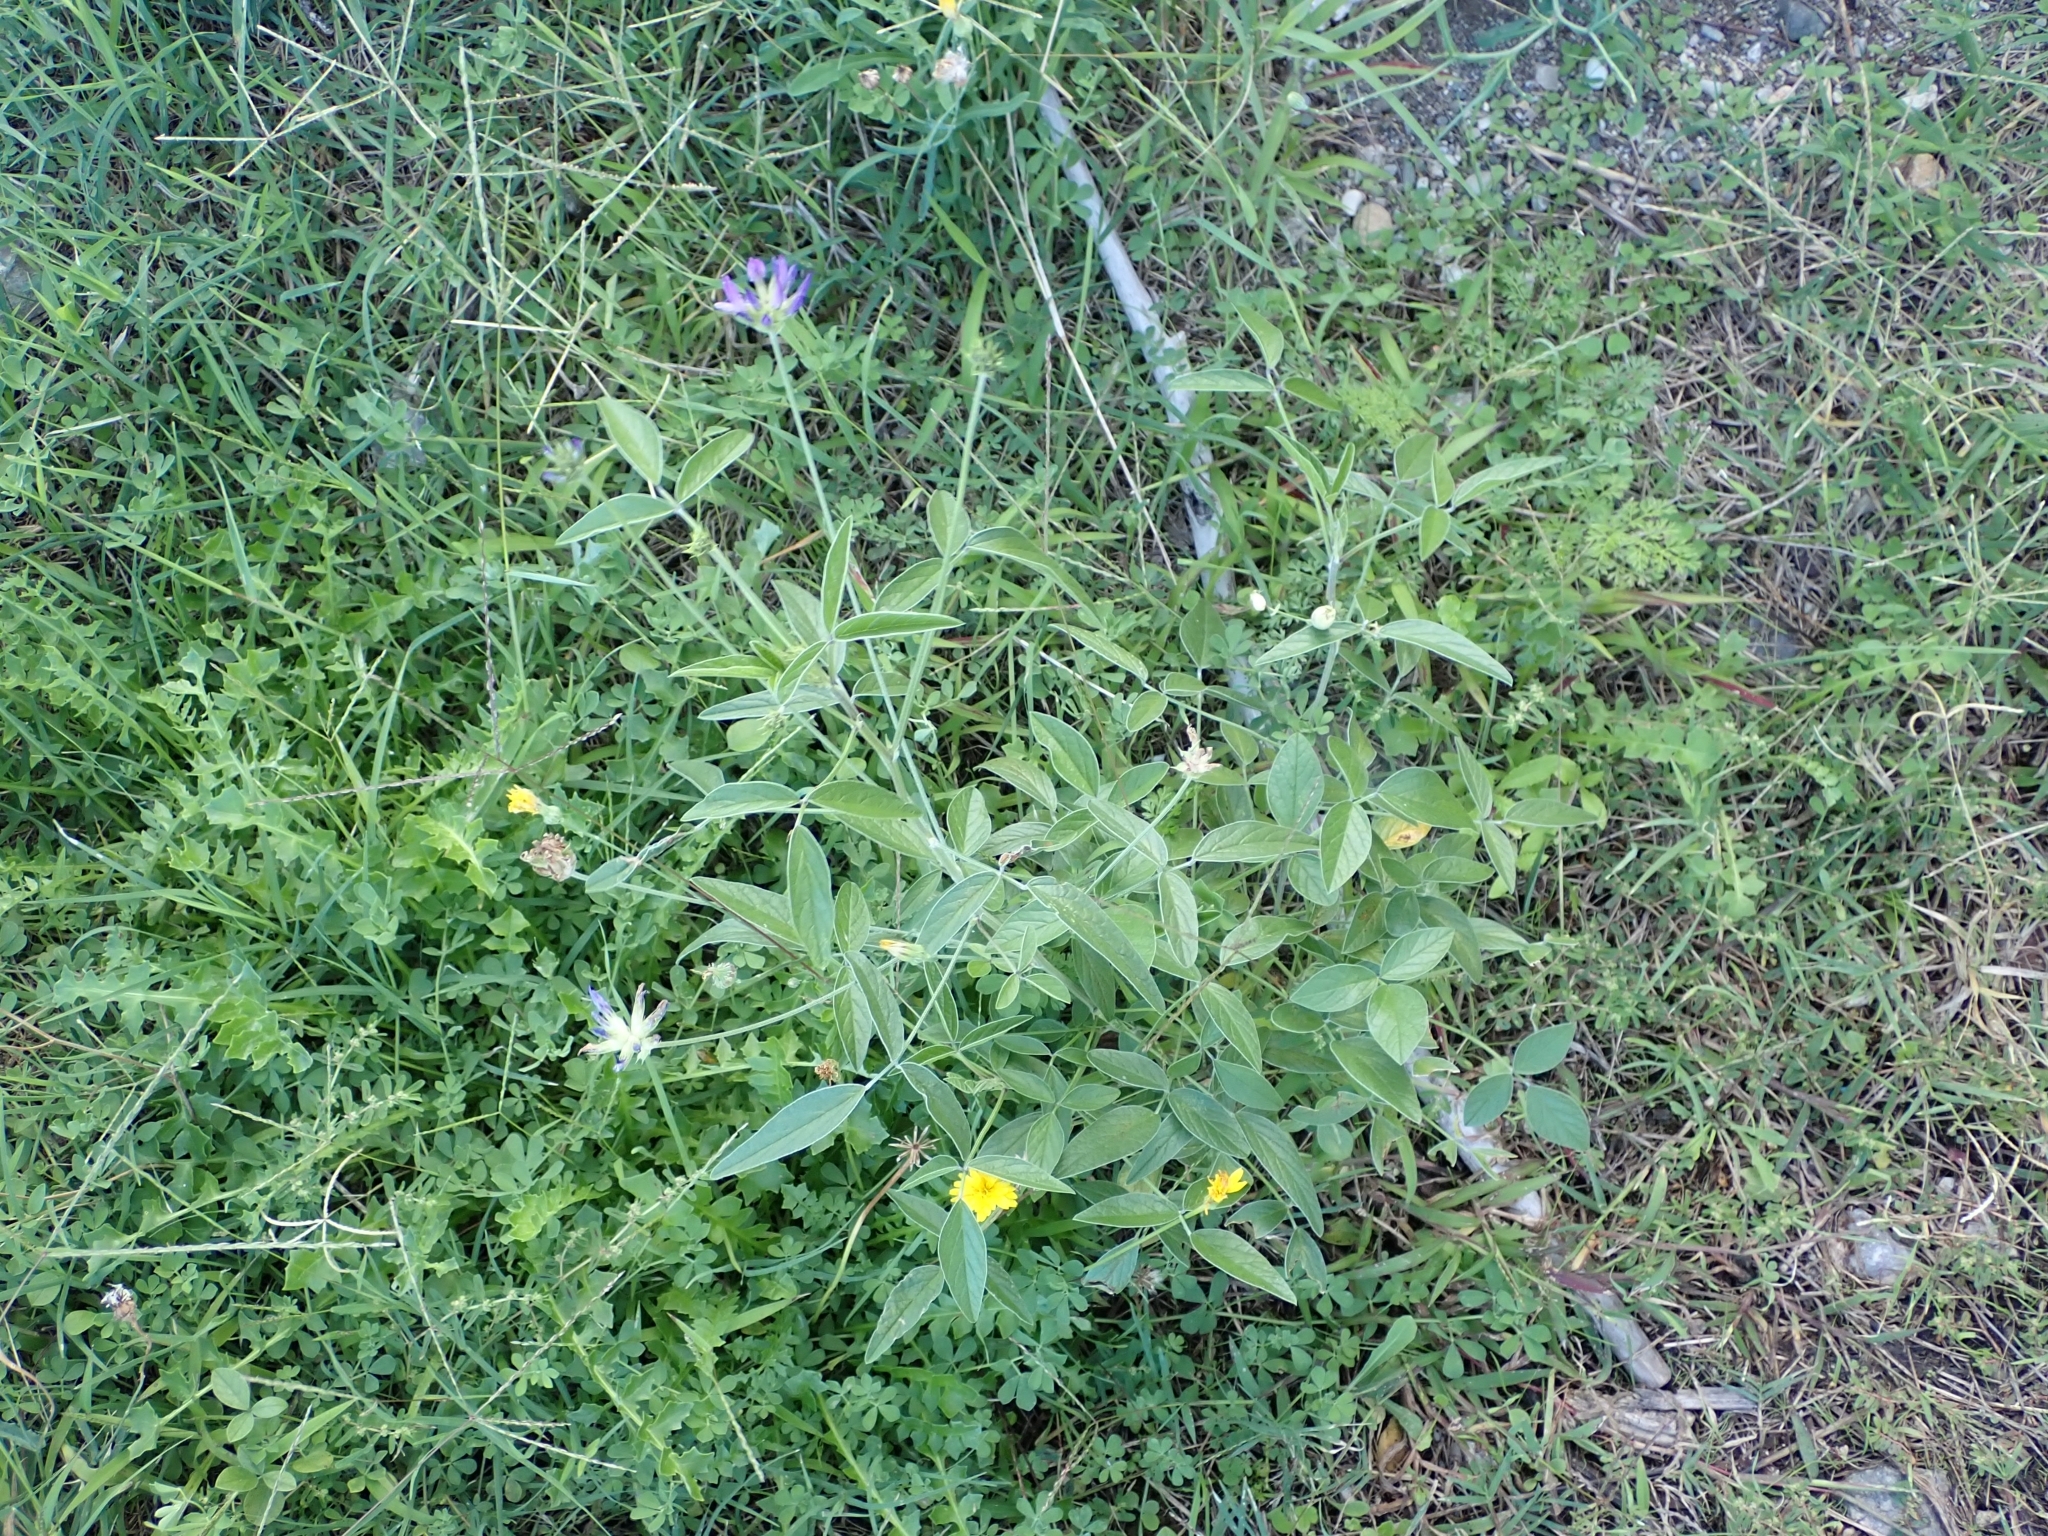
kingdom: Plantae
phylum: Tracheophyta
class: Magnoliopsida
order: Fabales
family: Fabaceae
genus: Bituminaria
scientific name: Bituminaria bituminosa
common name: Arabian pea
